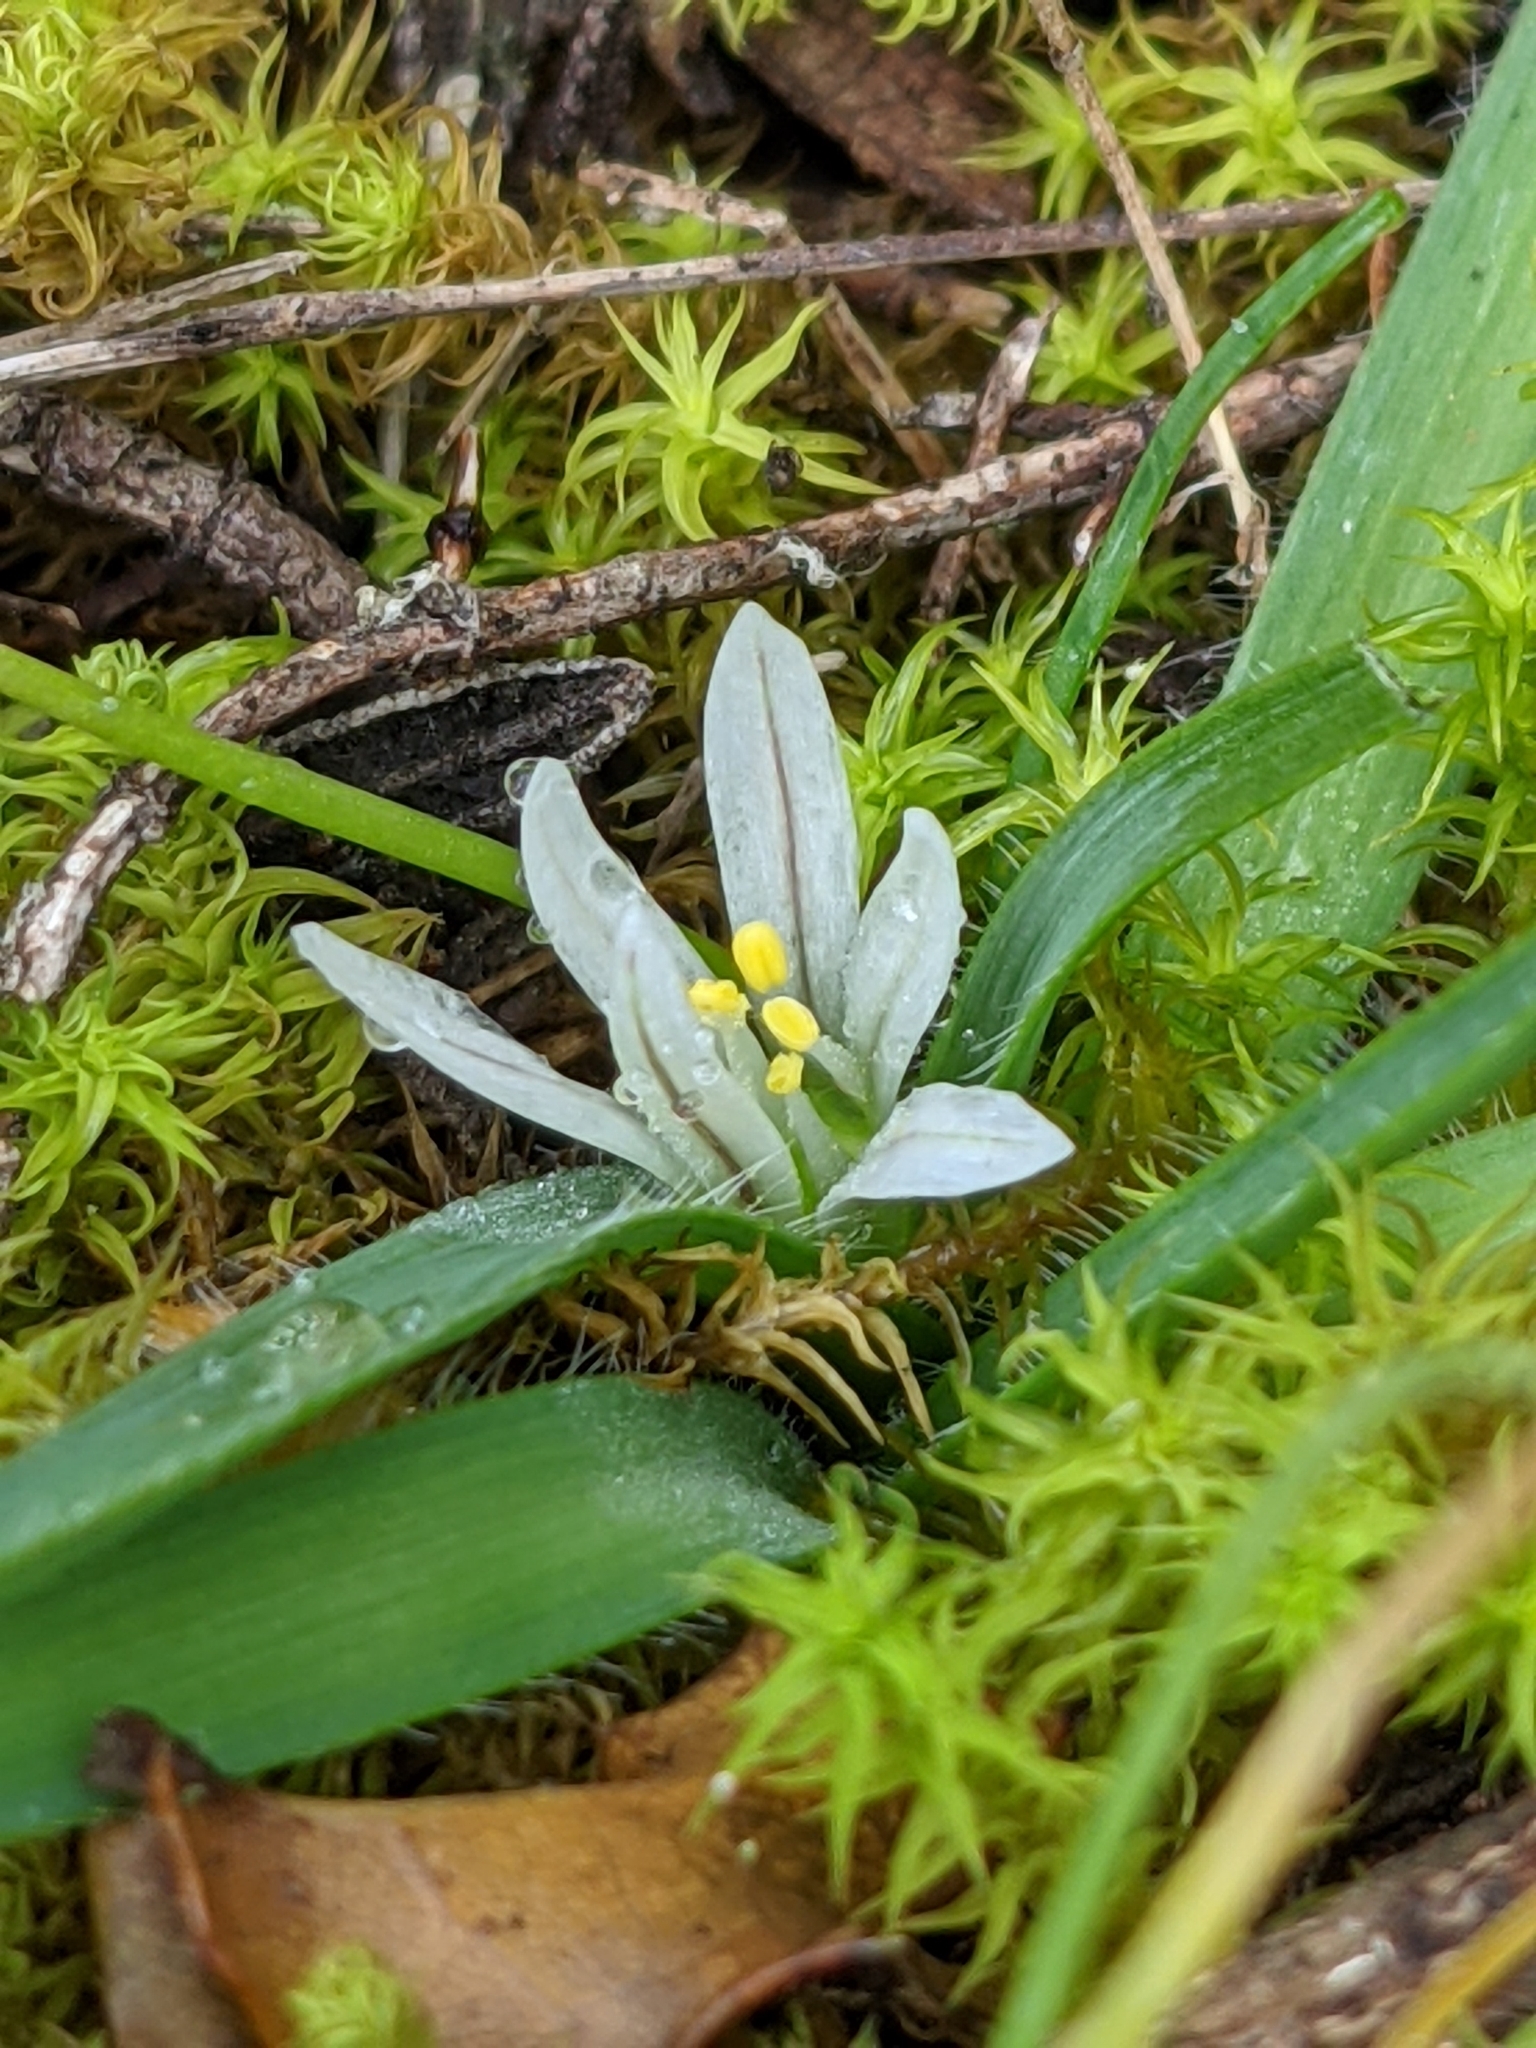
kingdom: Plantae
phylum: Tracheophyta
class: Liliopsida
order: Asparagales
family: Amaryllidaceae
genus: Allium
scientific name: Allium chamaemoly
